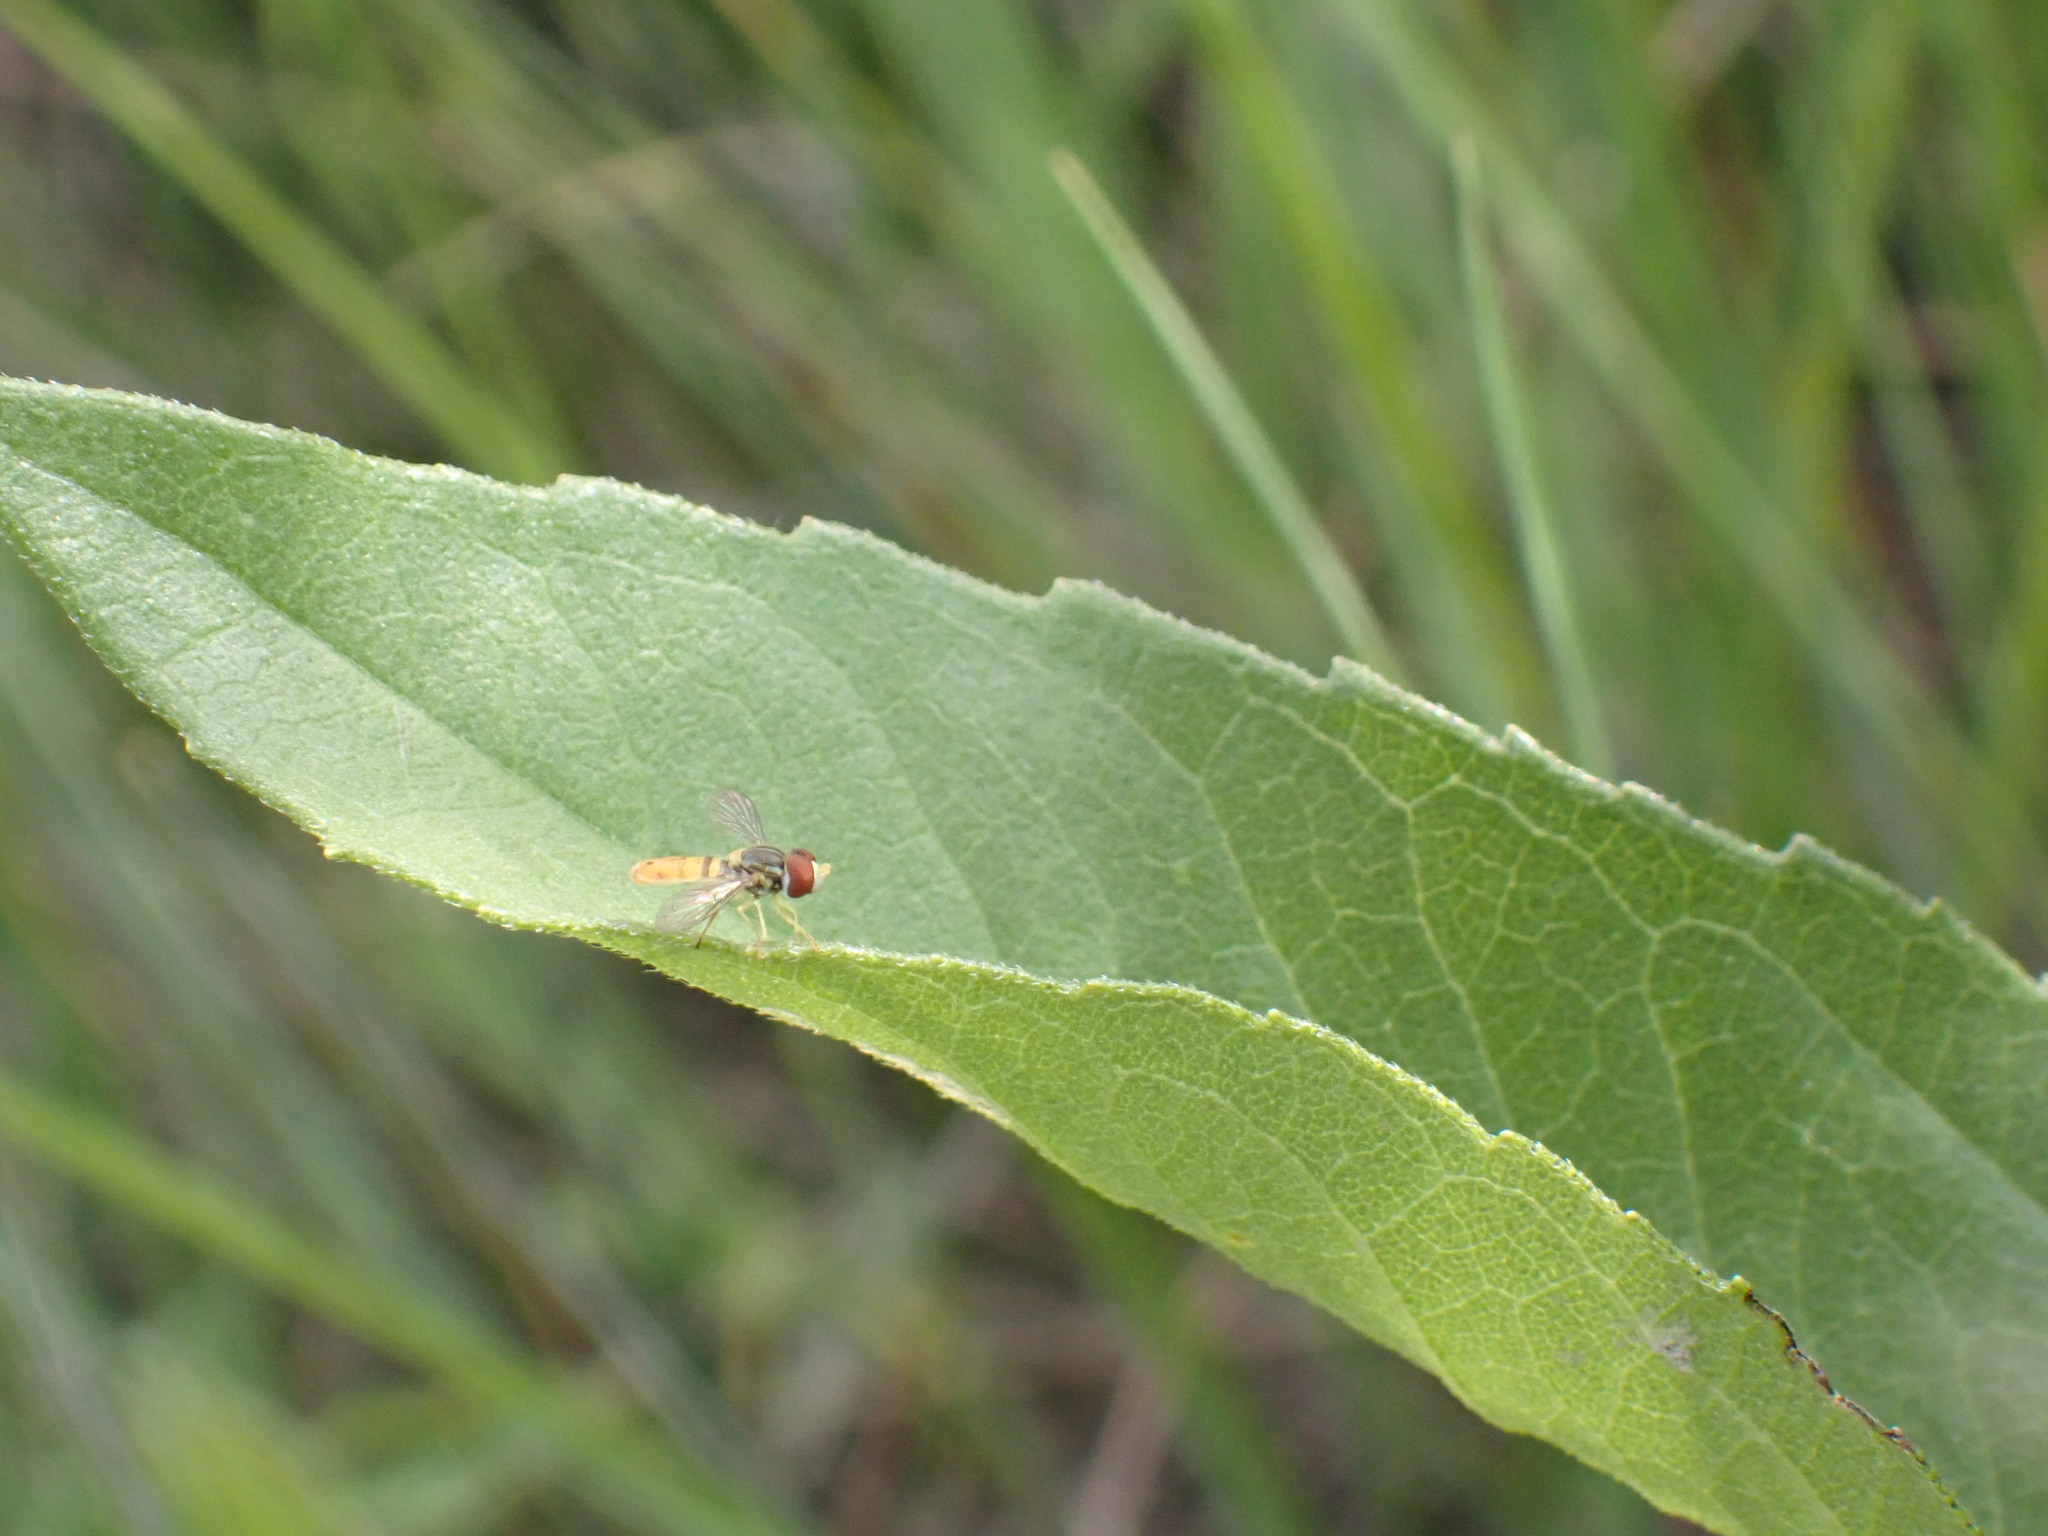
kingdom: Animalia
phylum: Arthropoda
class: Insecta
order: Diptera
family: Syrphidae
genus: Toxomerus
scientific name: Toxomerus marginatus
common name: Syrphid fly
